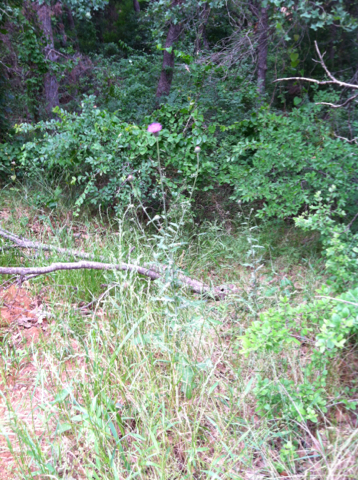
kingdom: Plantae
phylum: Tracheophyta
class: Magnoliopsida
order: Asterales
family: Asteraceae
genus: Cirsium
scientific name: Cirsium texanum
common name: Texas purple thistle
